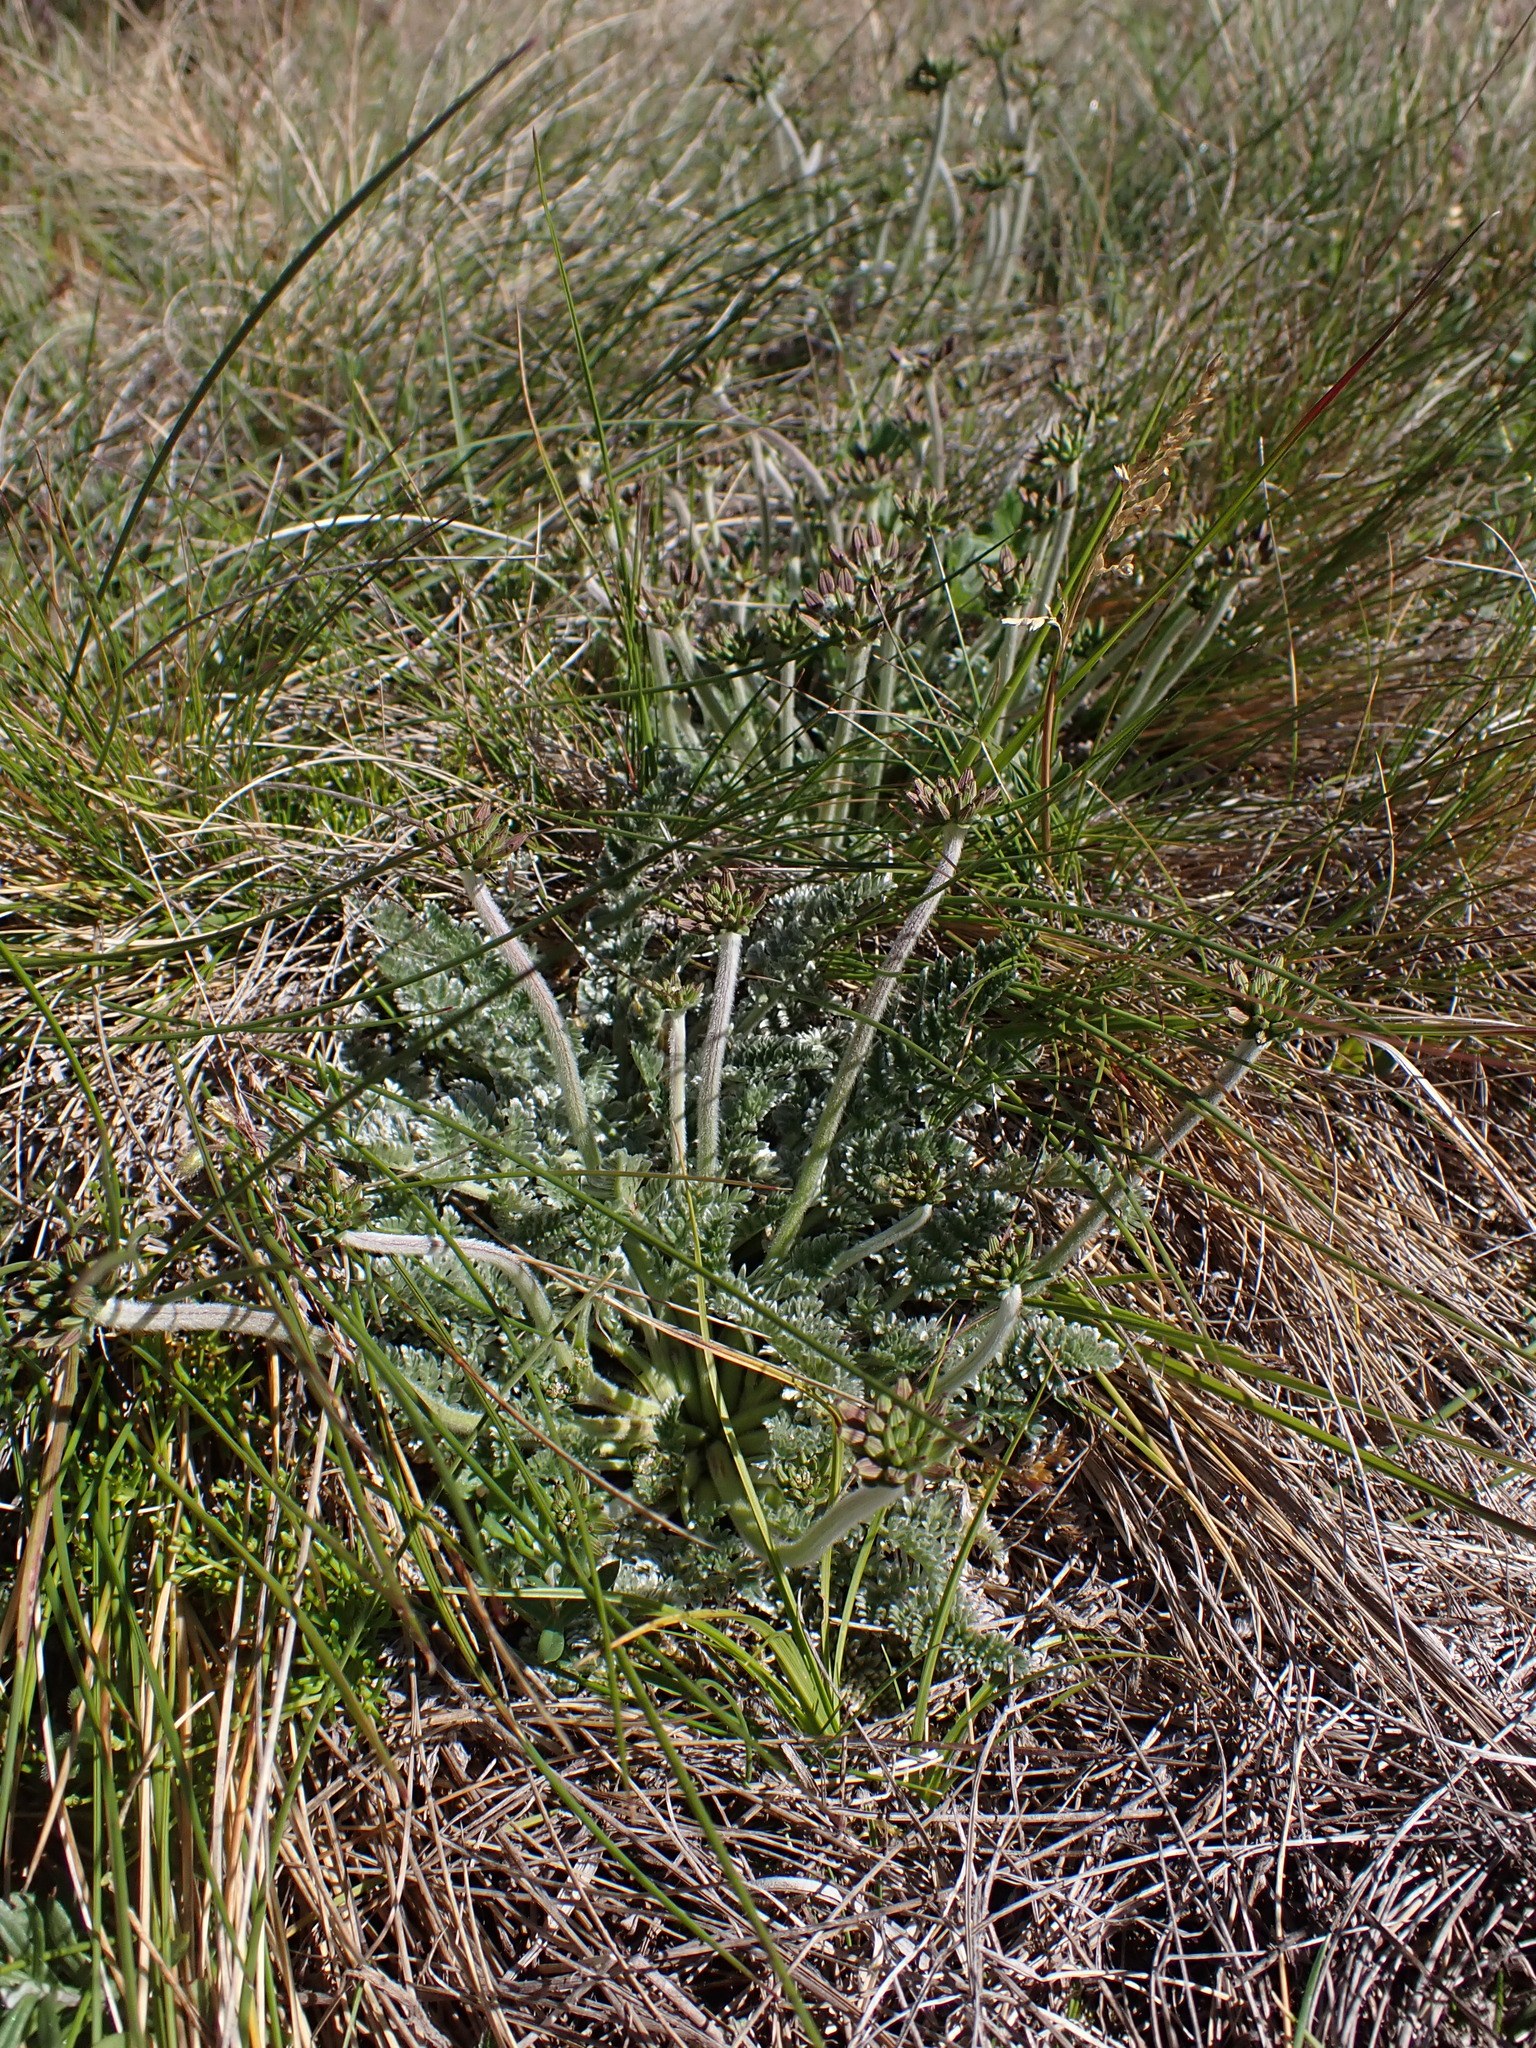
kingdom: Plantae
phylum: Tracheophyta
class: Magnoliopsida
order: Apiales
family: Apiaceae
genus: Chaerophyllum
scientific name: Chaerophyllum argenteum
